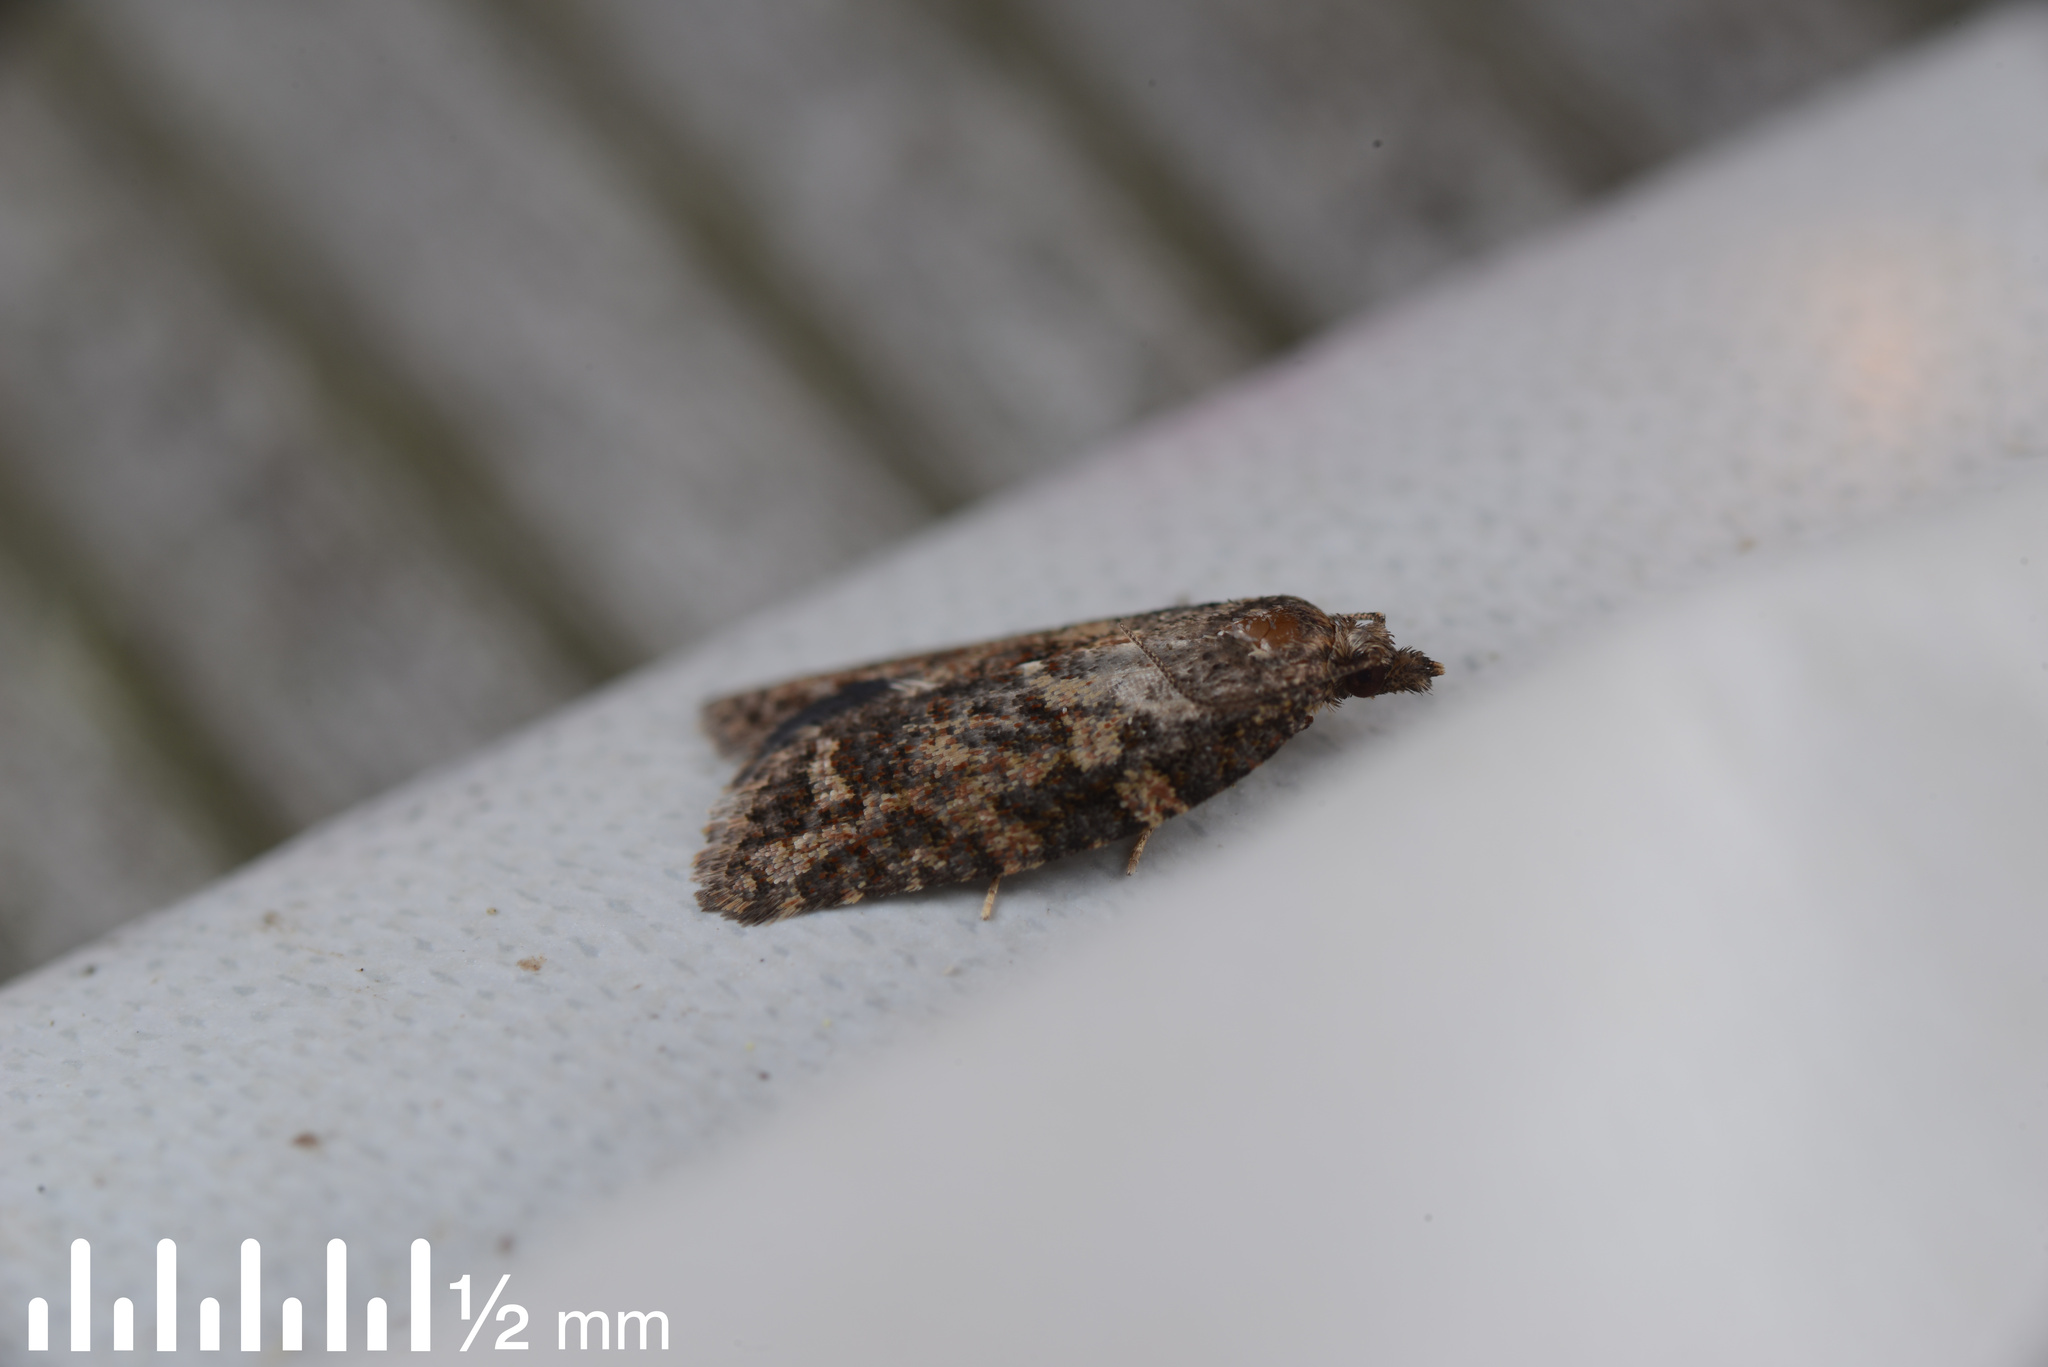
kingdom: Animalia
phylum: Arthropoda
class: Insecta
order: Lepidoptera
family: Tortricidae
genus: Capua
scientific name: Capua intractana
